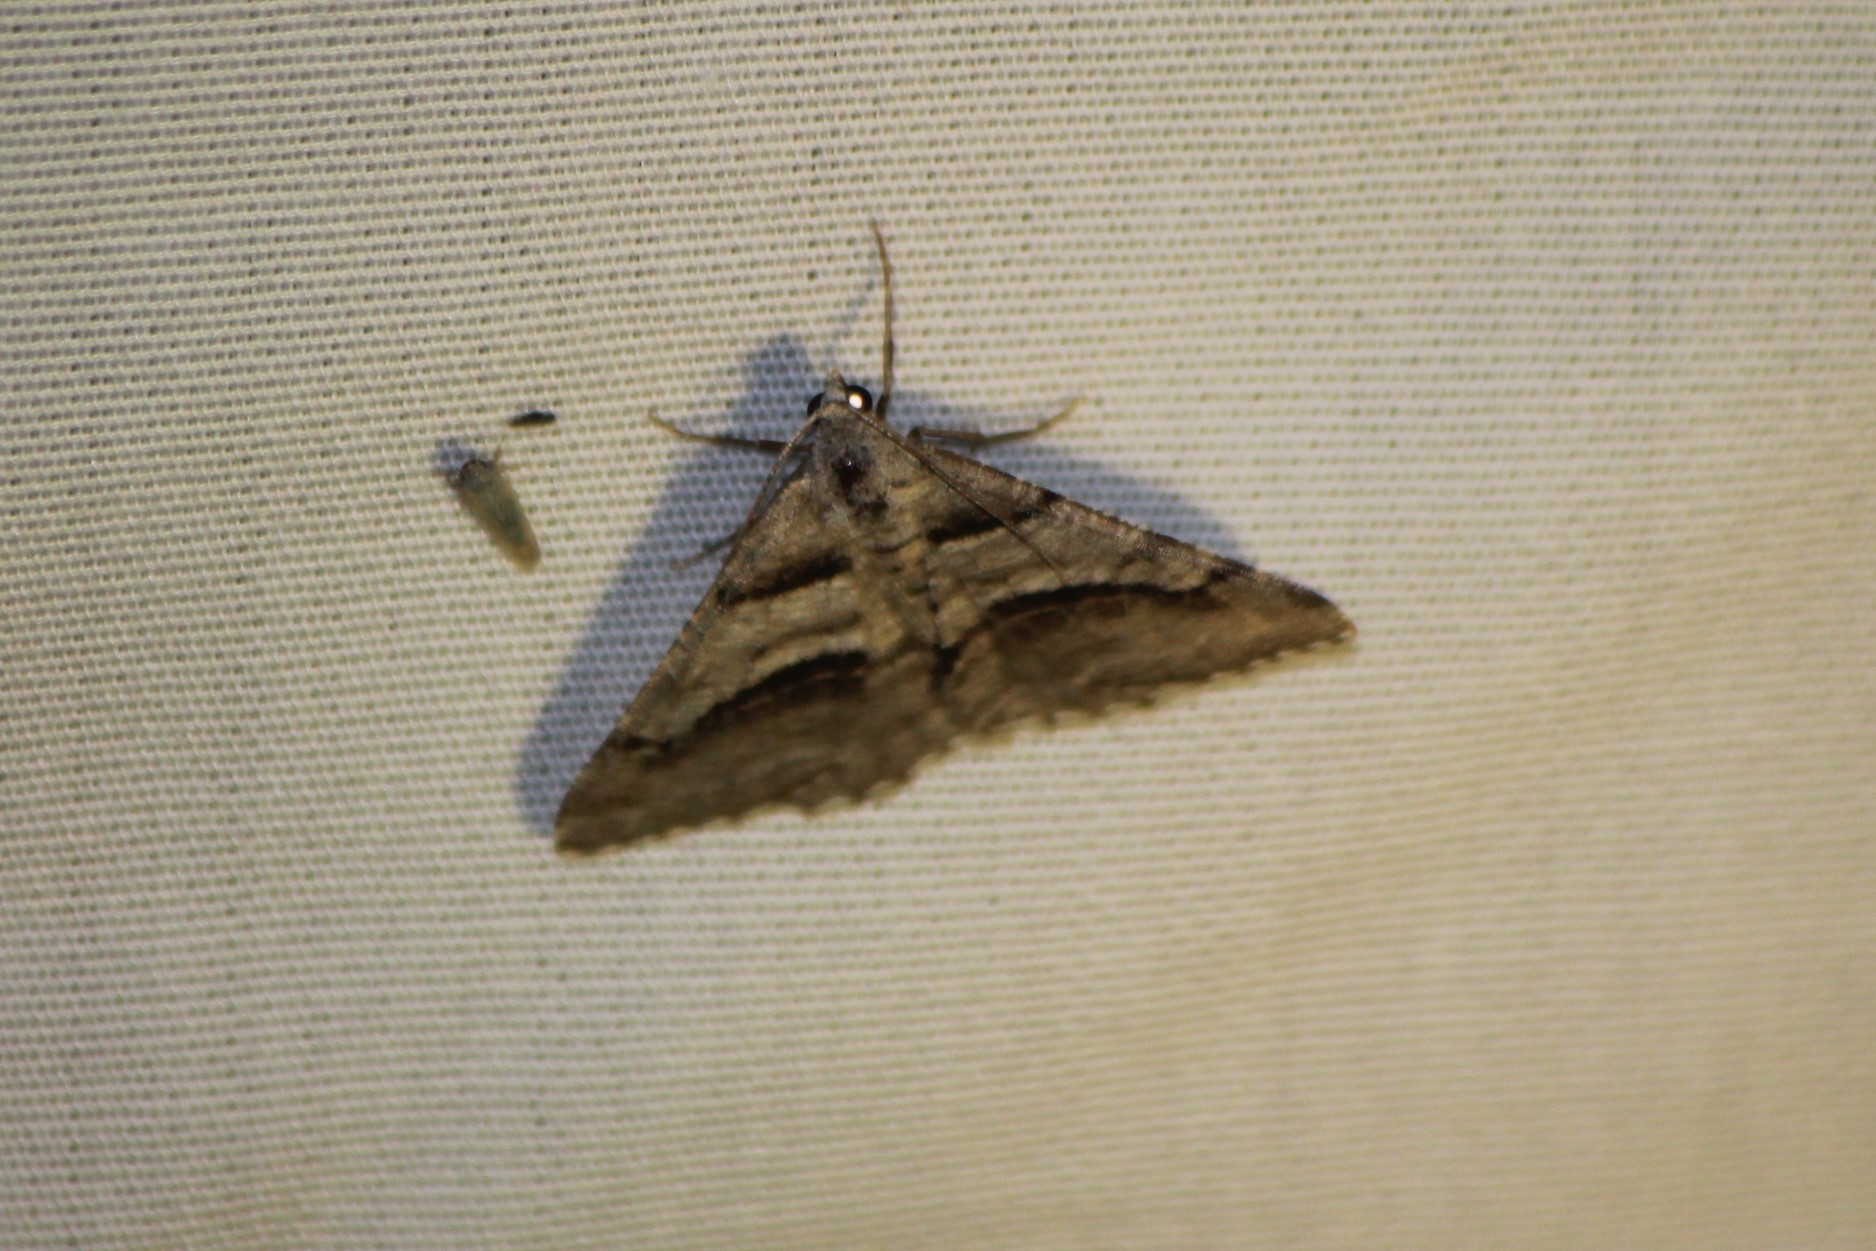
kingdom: Animalia
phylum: Arthropoda
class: Insecta
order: Lepidoptera
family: Geometridae
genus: Digrammia
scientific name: Digrammia continuata
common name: Curve-lined angle
